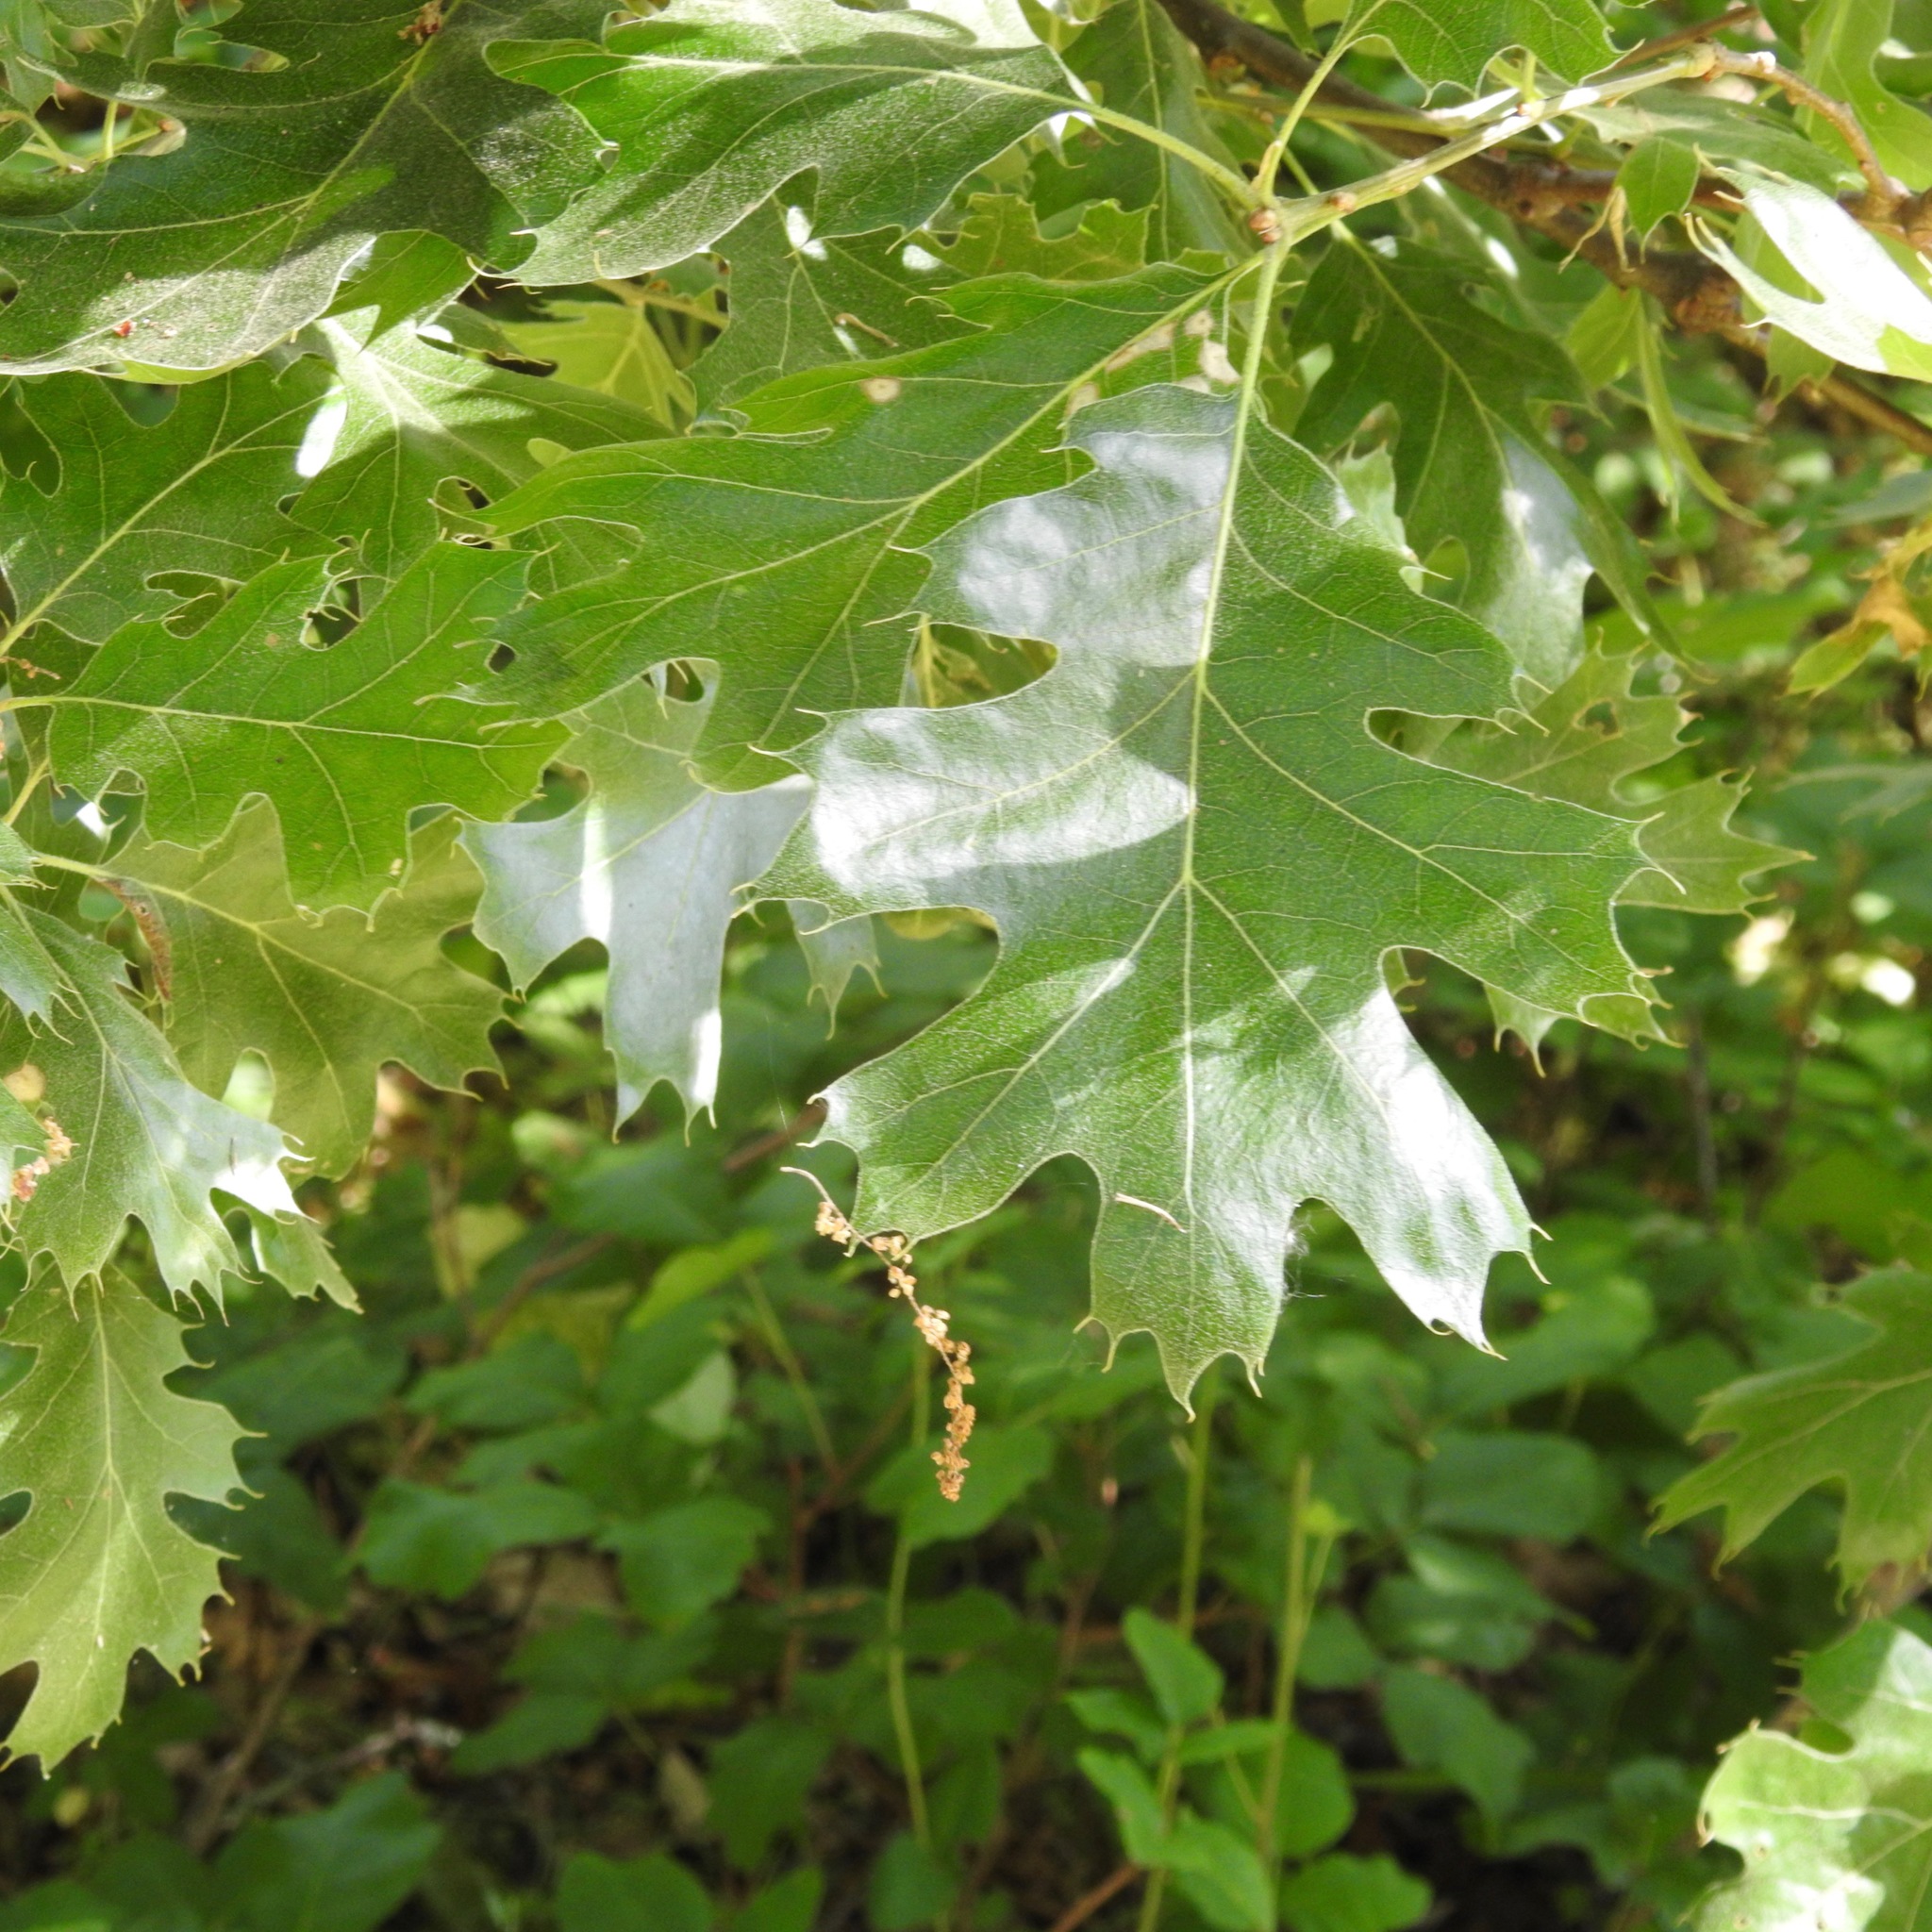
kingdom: Plantae
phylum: Tracheophyta
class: Magnoliopsida
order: Fagales
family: Fagaceae
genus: Quercus
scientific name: Quercus kelloggii
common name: California black oak
